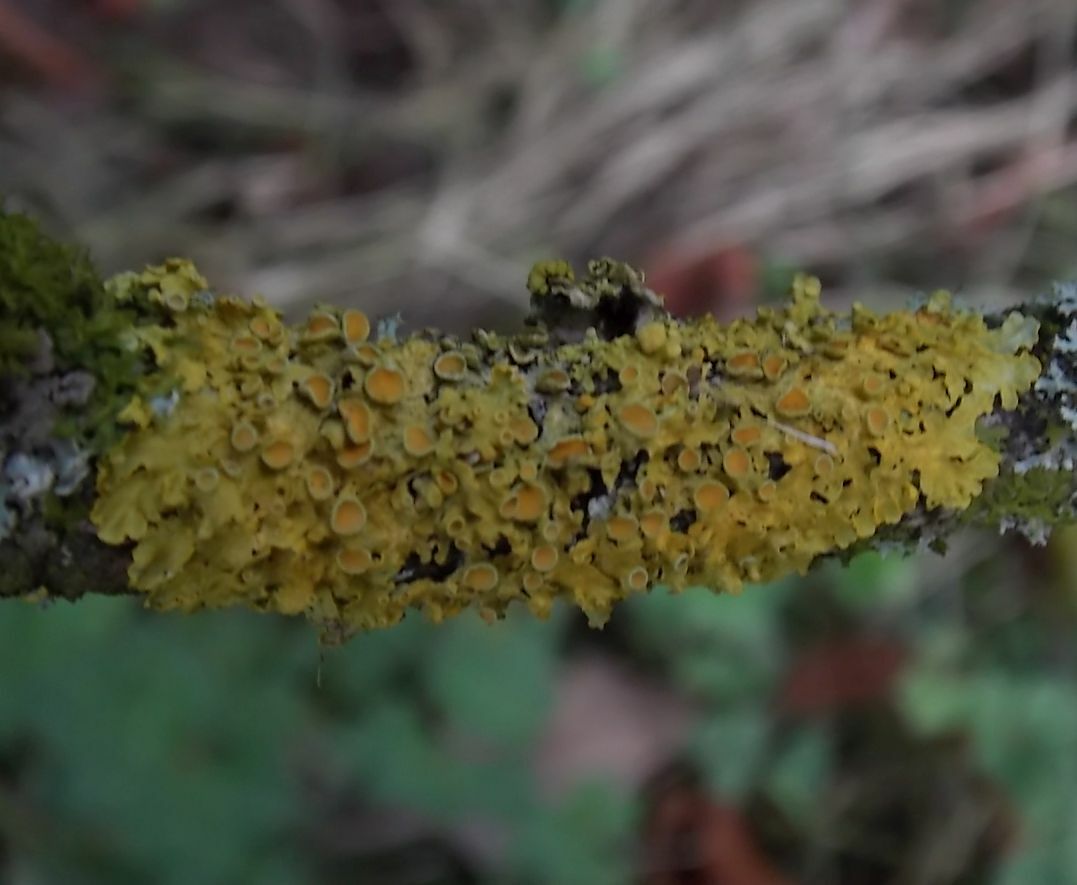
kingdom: Fungi
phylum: Ascomycota
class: Lecanoromycetes
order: Teloschistales
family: Teloschistaceae
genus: Xanthoria
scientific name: Xanthoria parietina
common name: Common orange lichen
